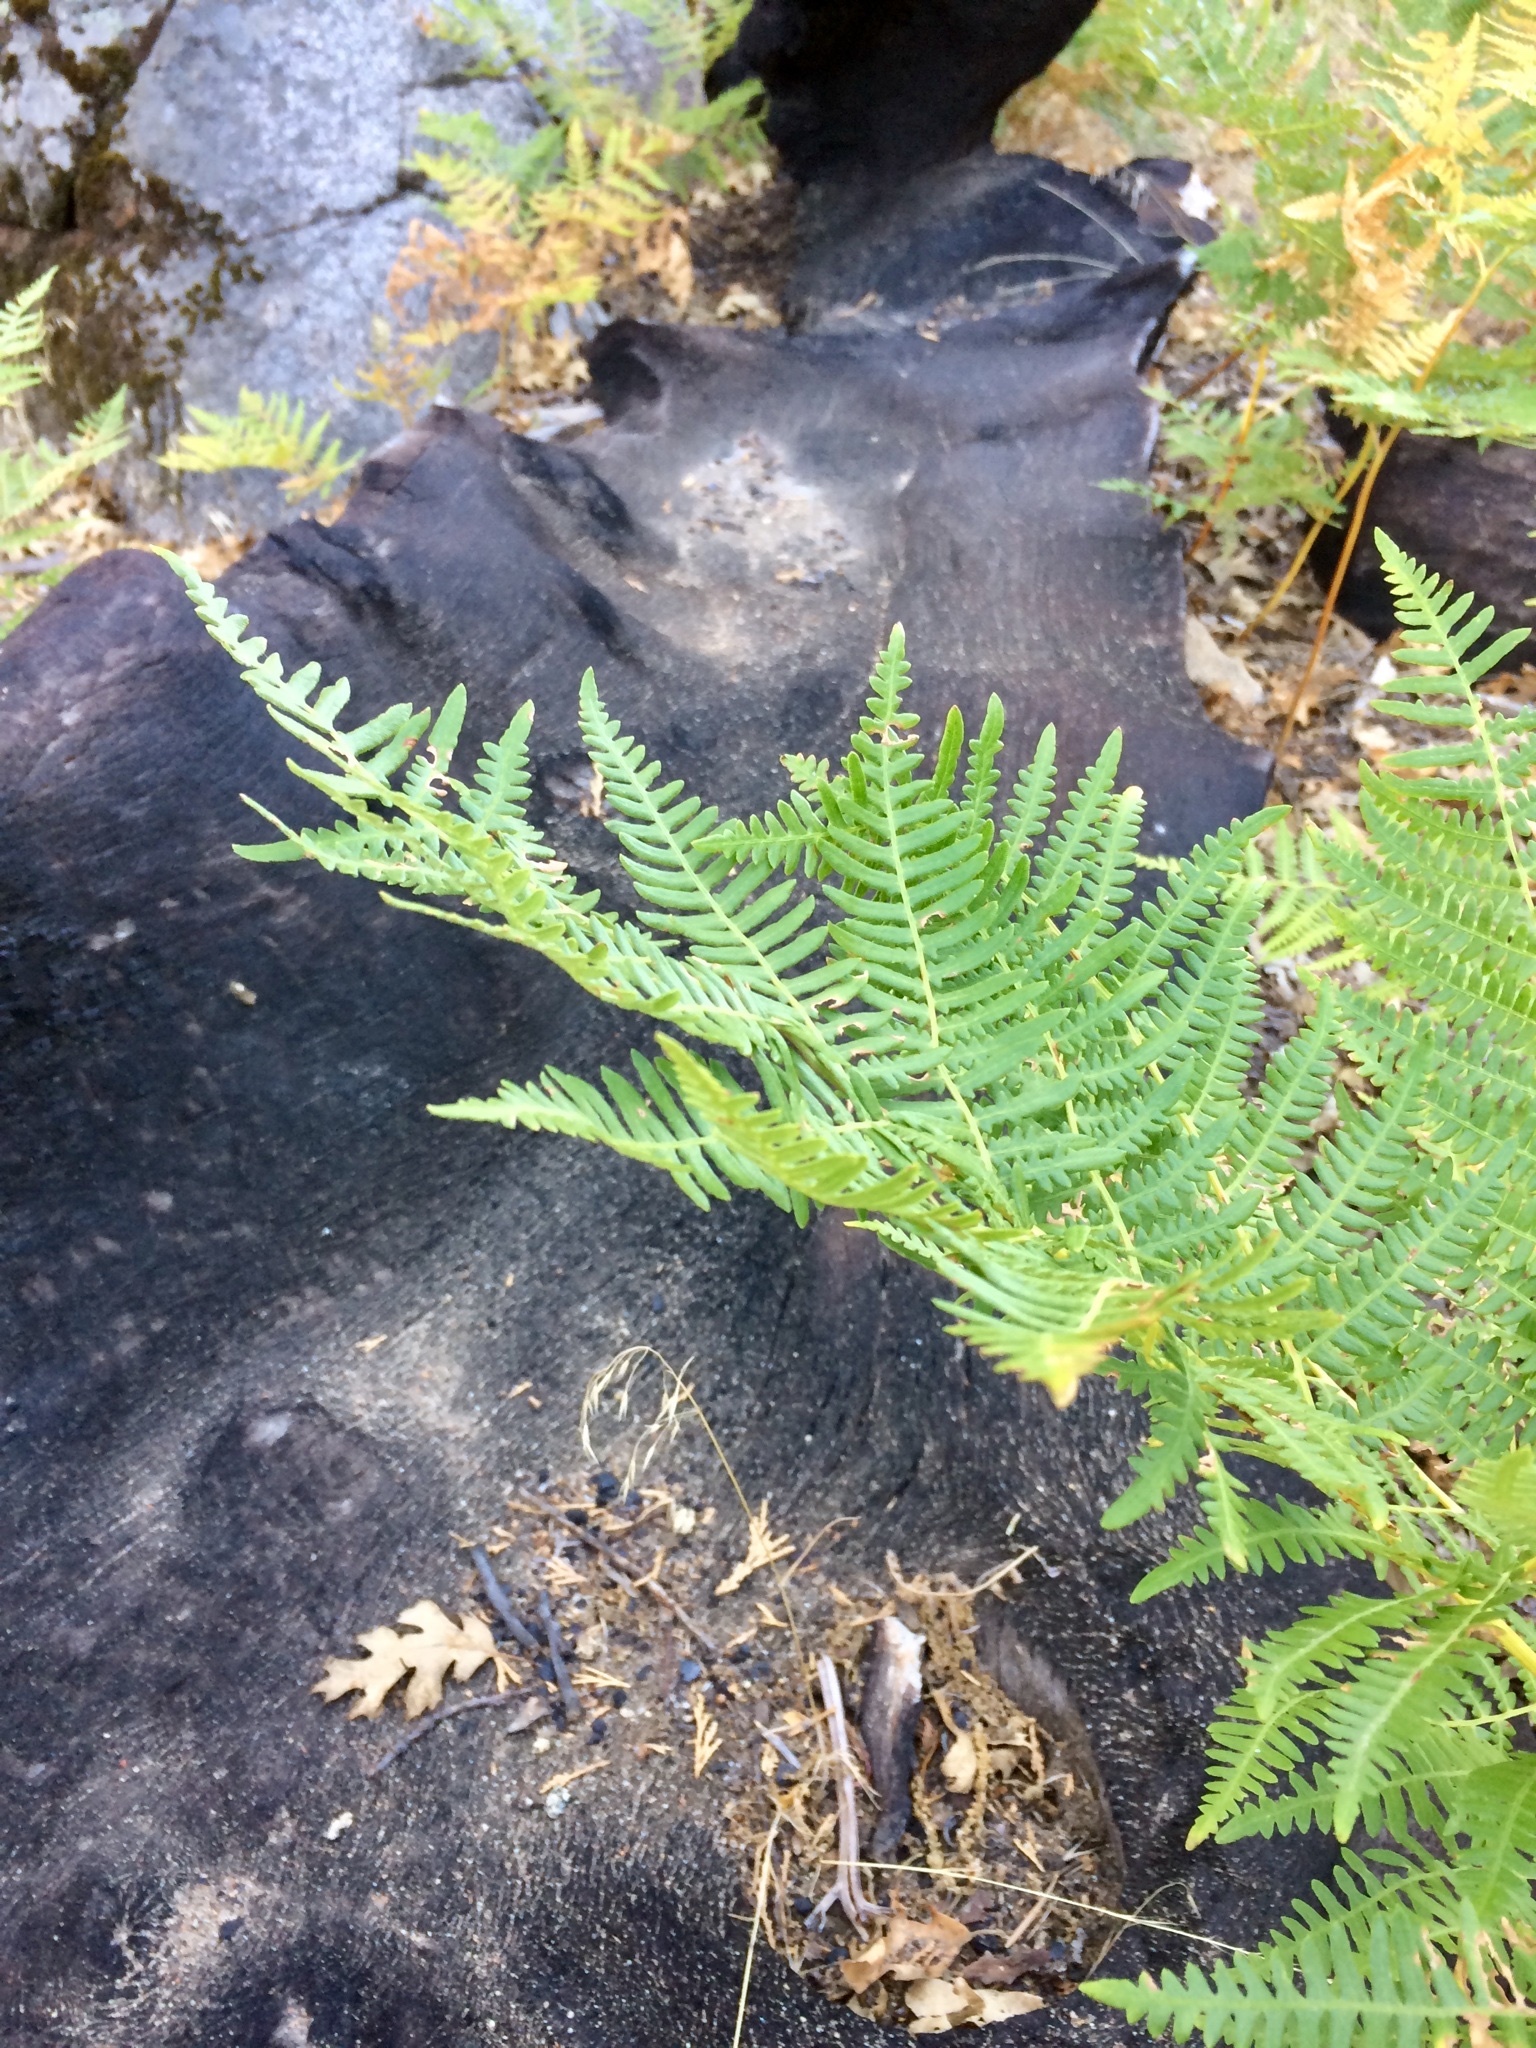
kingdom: Plantae
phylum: Tracheophyta
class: Polypodiopsida
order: Polypodiales
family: Dennstaedtiaceae
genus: Pteridium
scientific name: Pteridium aquilinum
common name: Bracken
